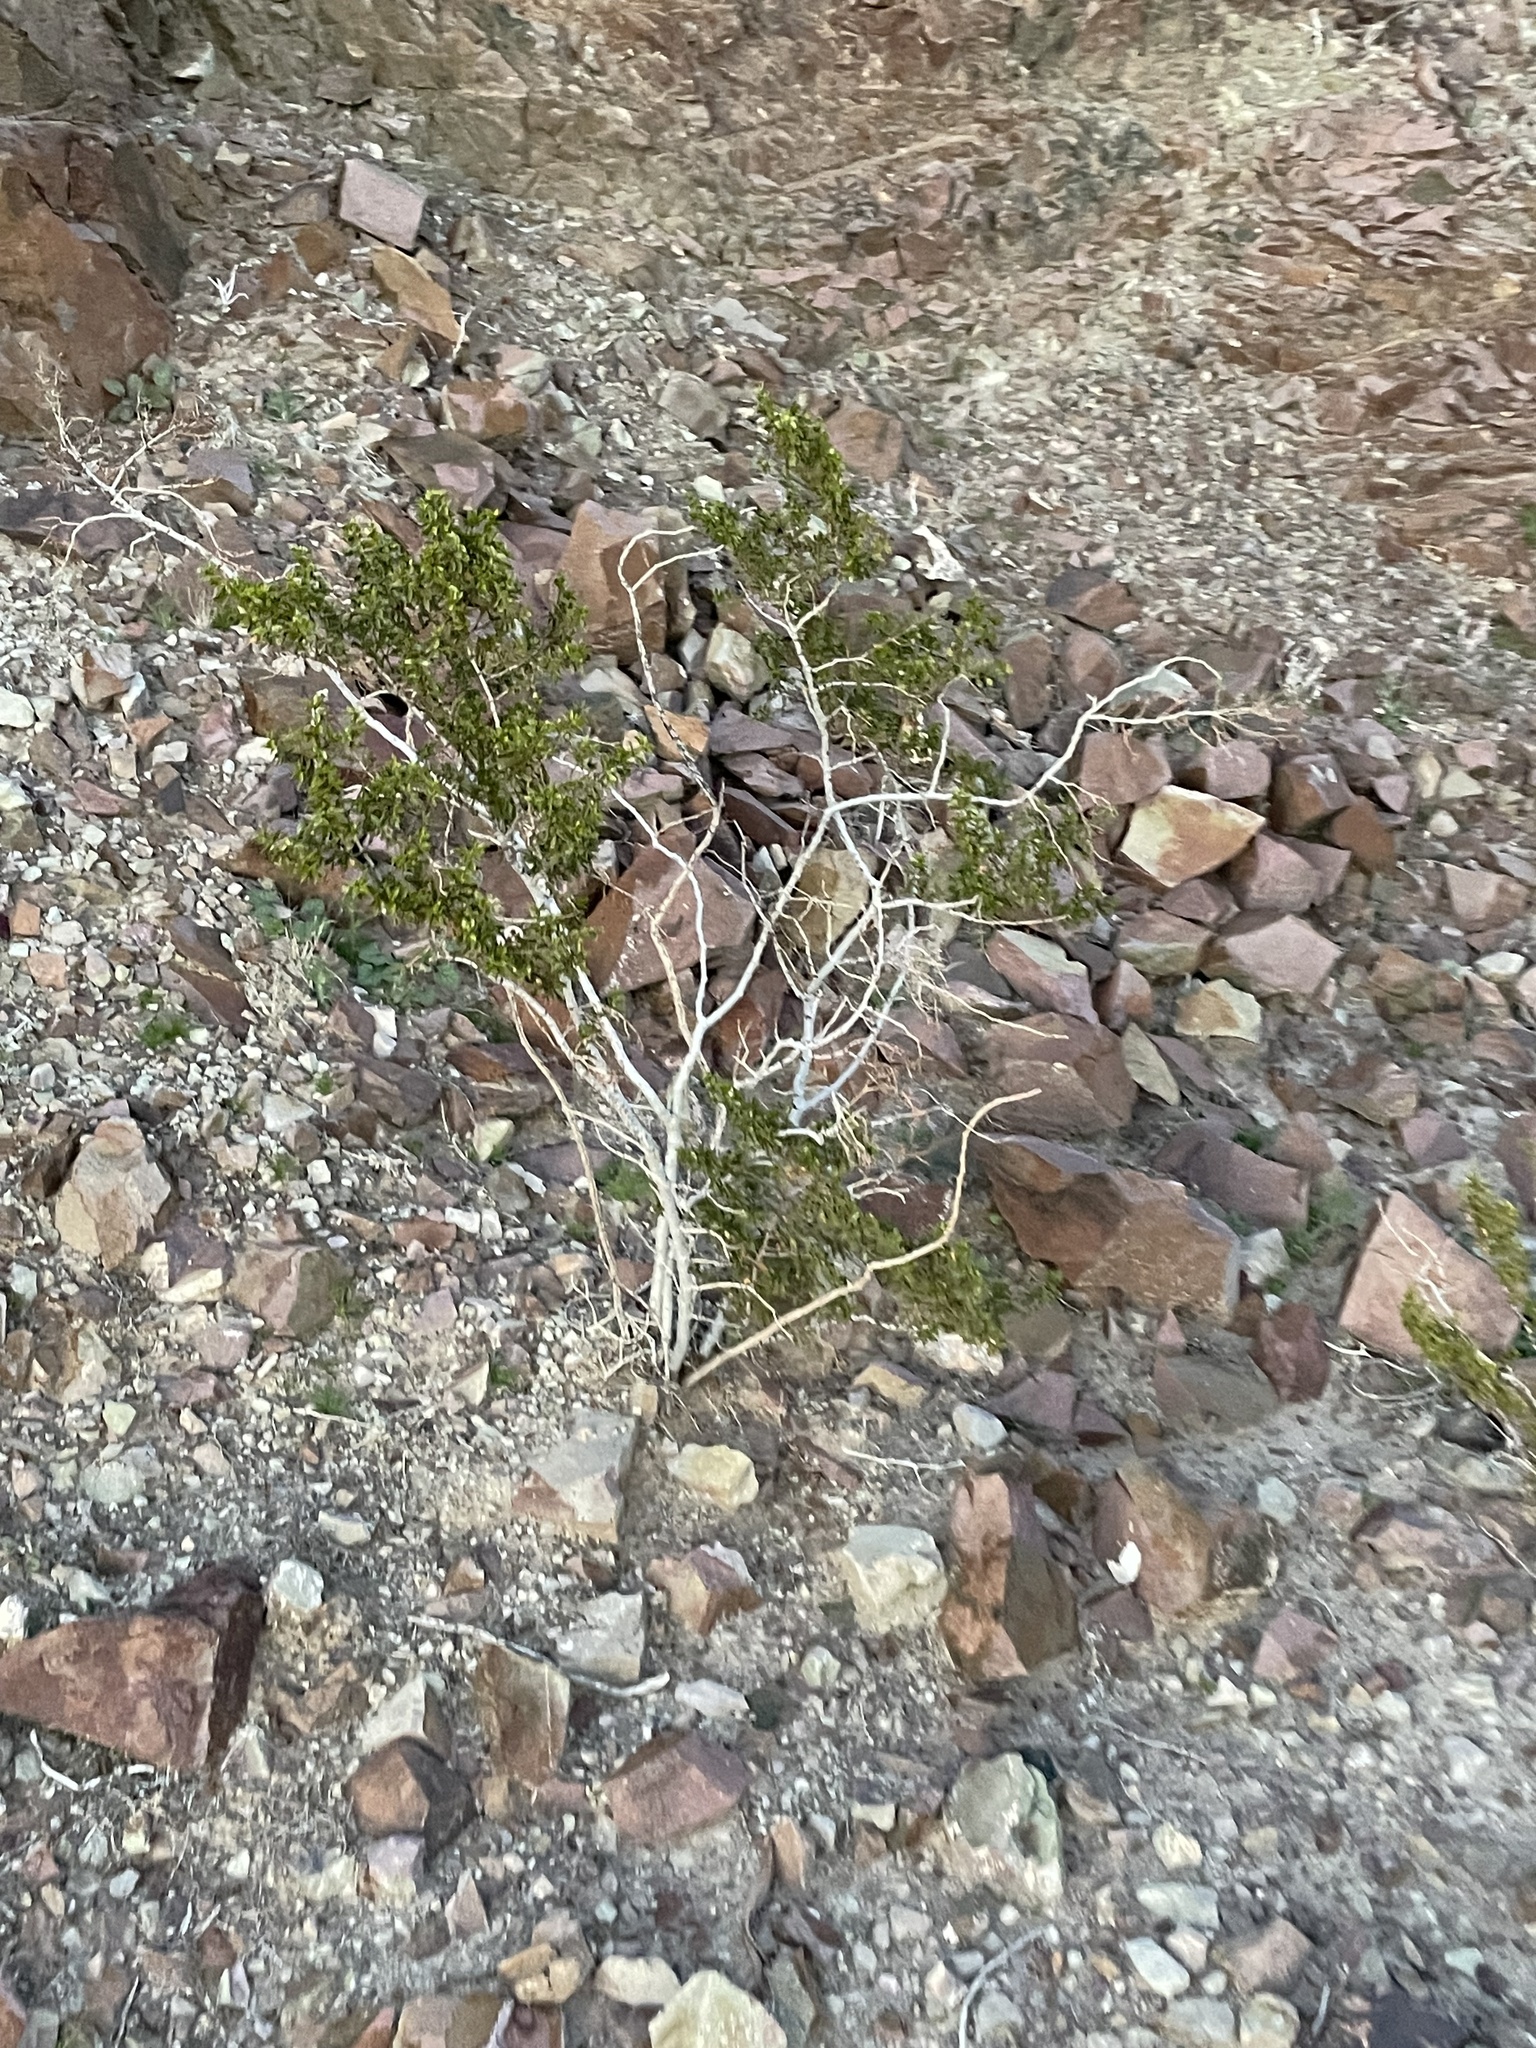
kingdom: Plantae
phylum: Tracheophyta
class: Magnoliopsida
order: Zygophyllales
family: Zygophyllaceae
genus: Larrea
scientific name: Larrea tridentata
